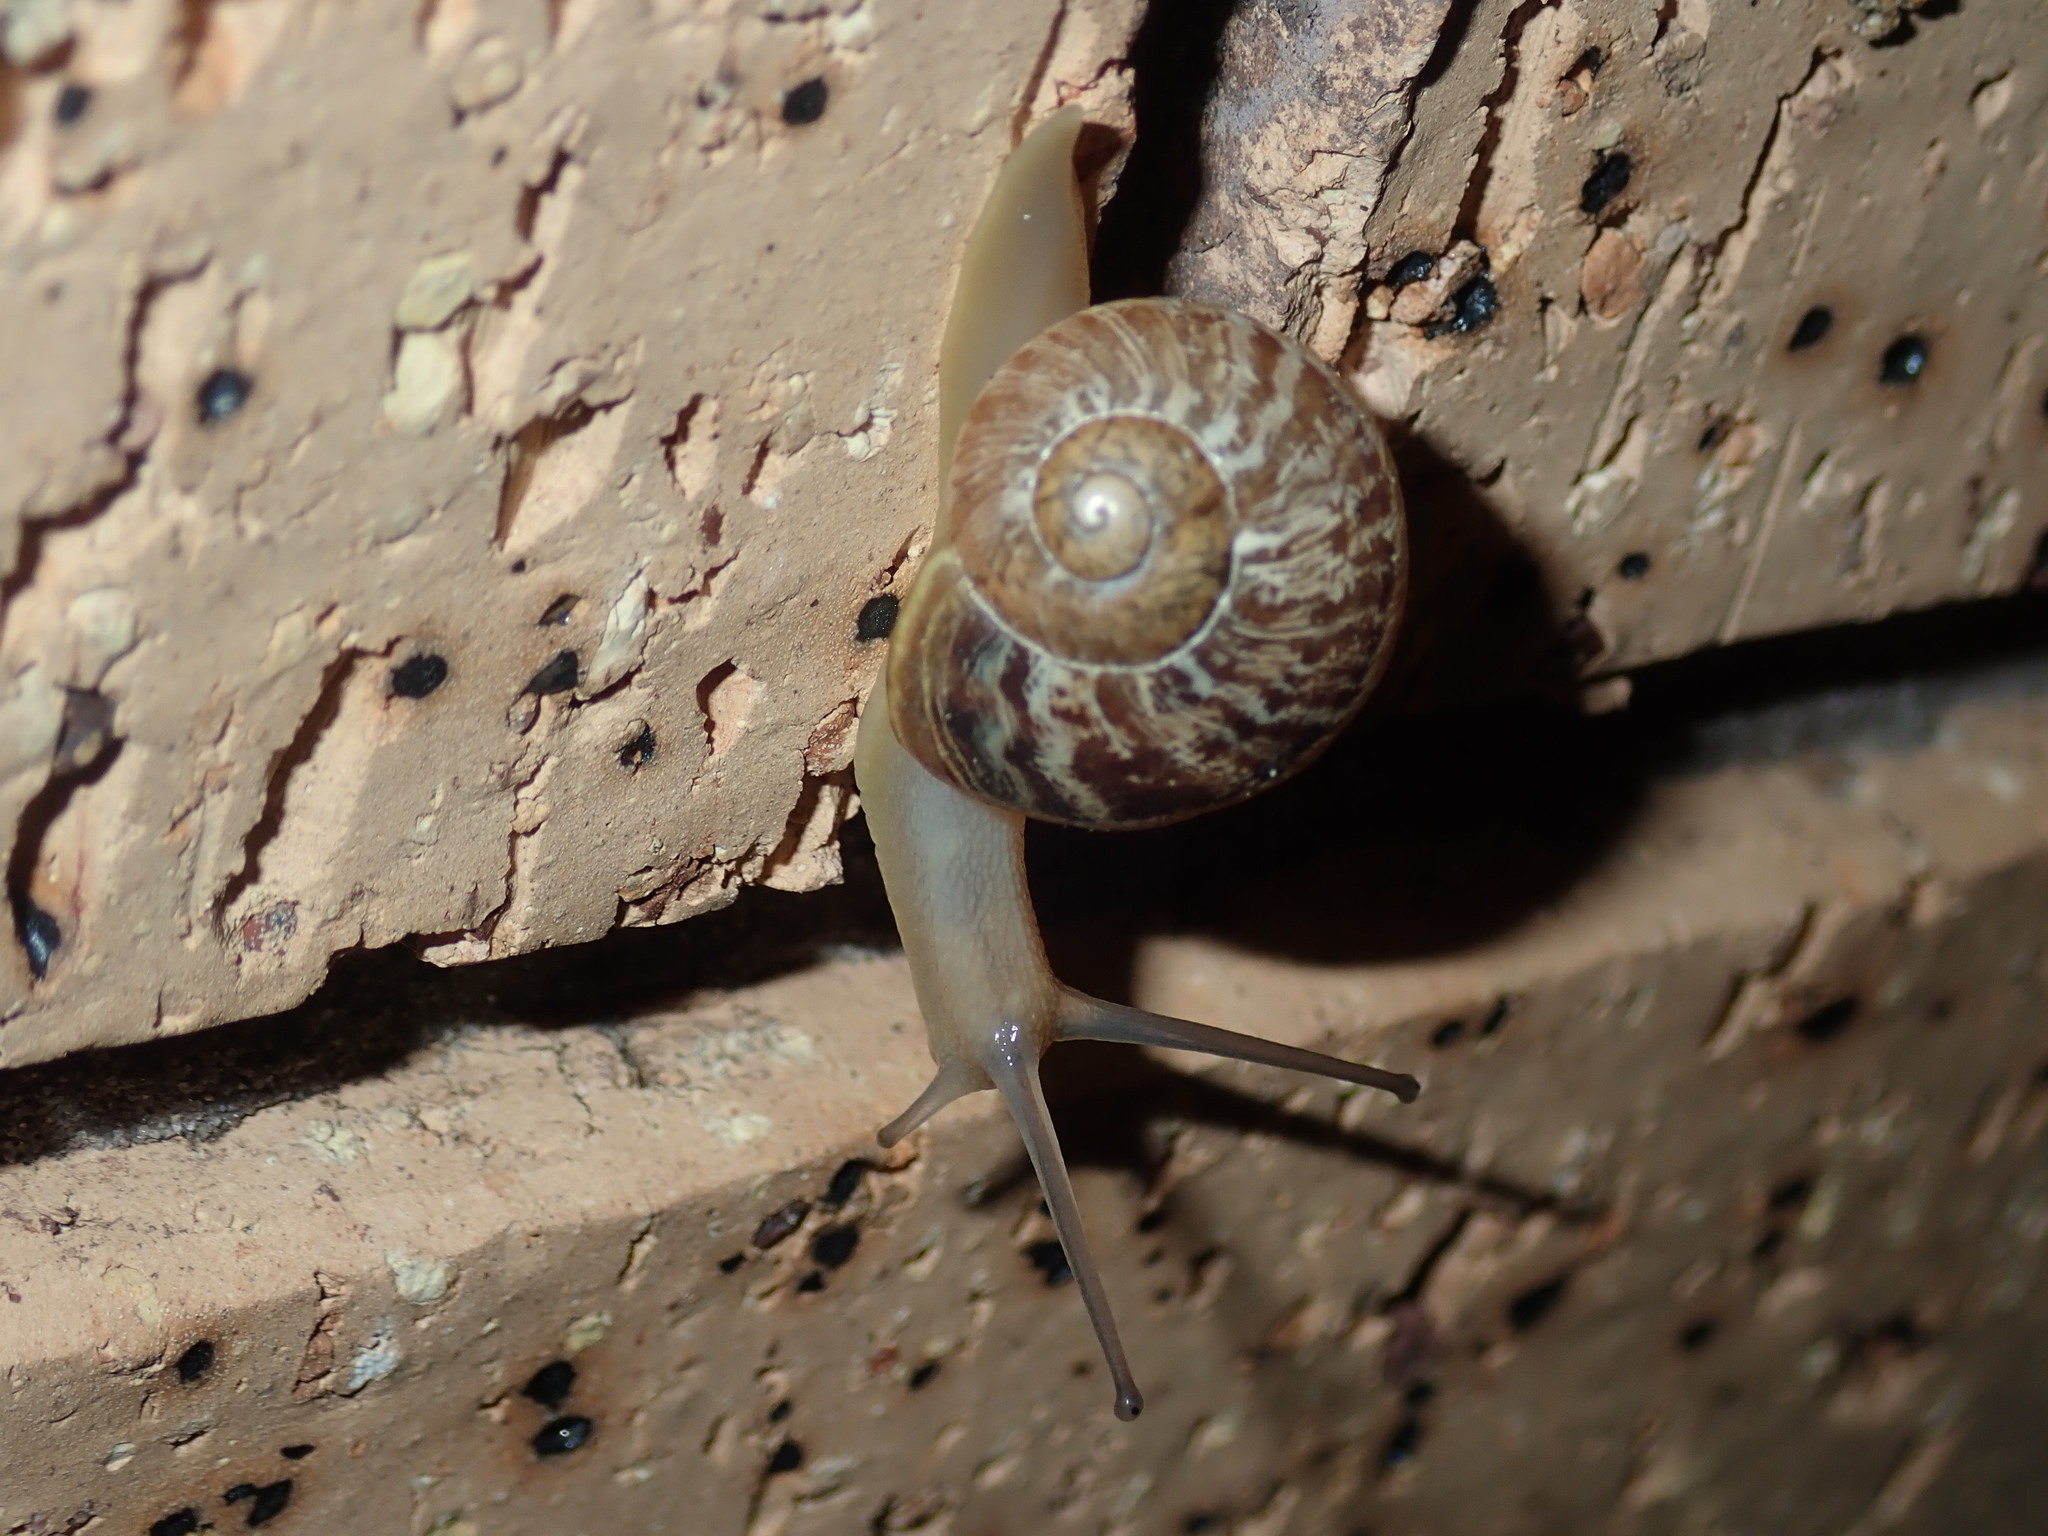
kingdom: Animalia
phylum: Mollusca
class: Gastropoda
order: Stylommatophora
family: Helicidae
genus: Cornu
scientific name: Cornu aspersum
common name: Brown garden snail
